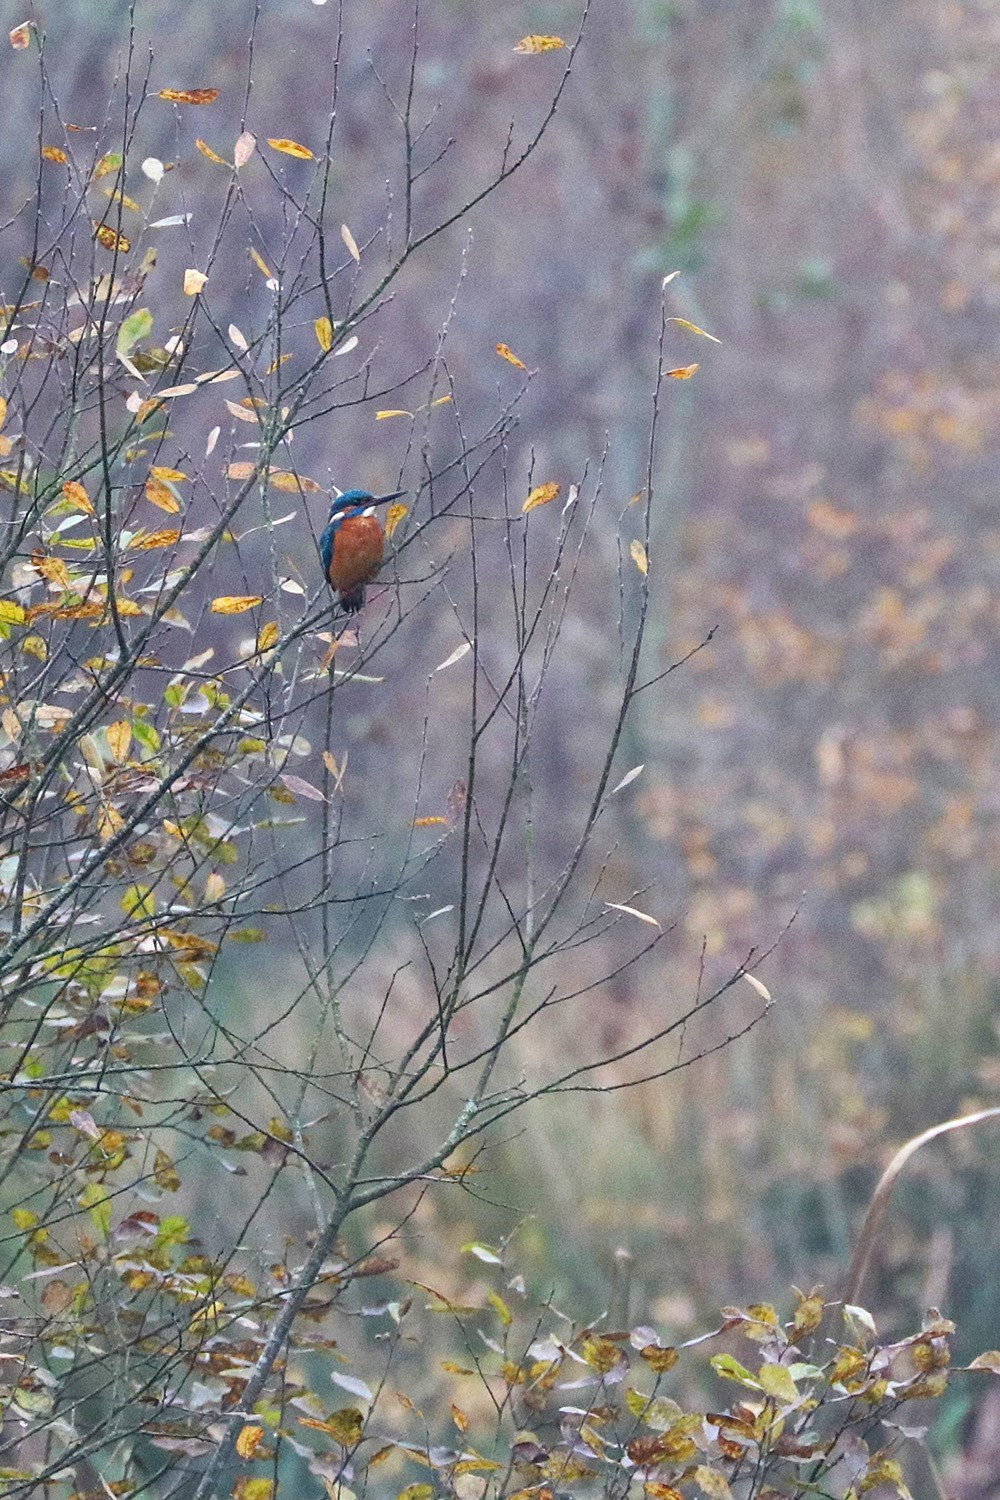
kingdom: Animalia
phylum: Chordata
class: Aves
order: Coraciiformes
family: Alcedinidae
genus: Alcedo
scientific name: Alcedo atthis
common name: Common kingfisher
